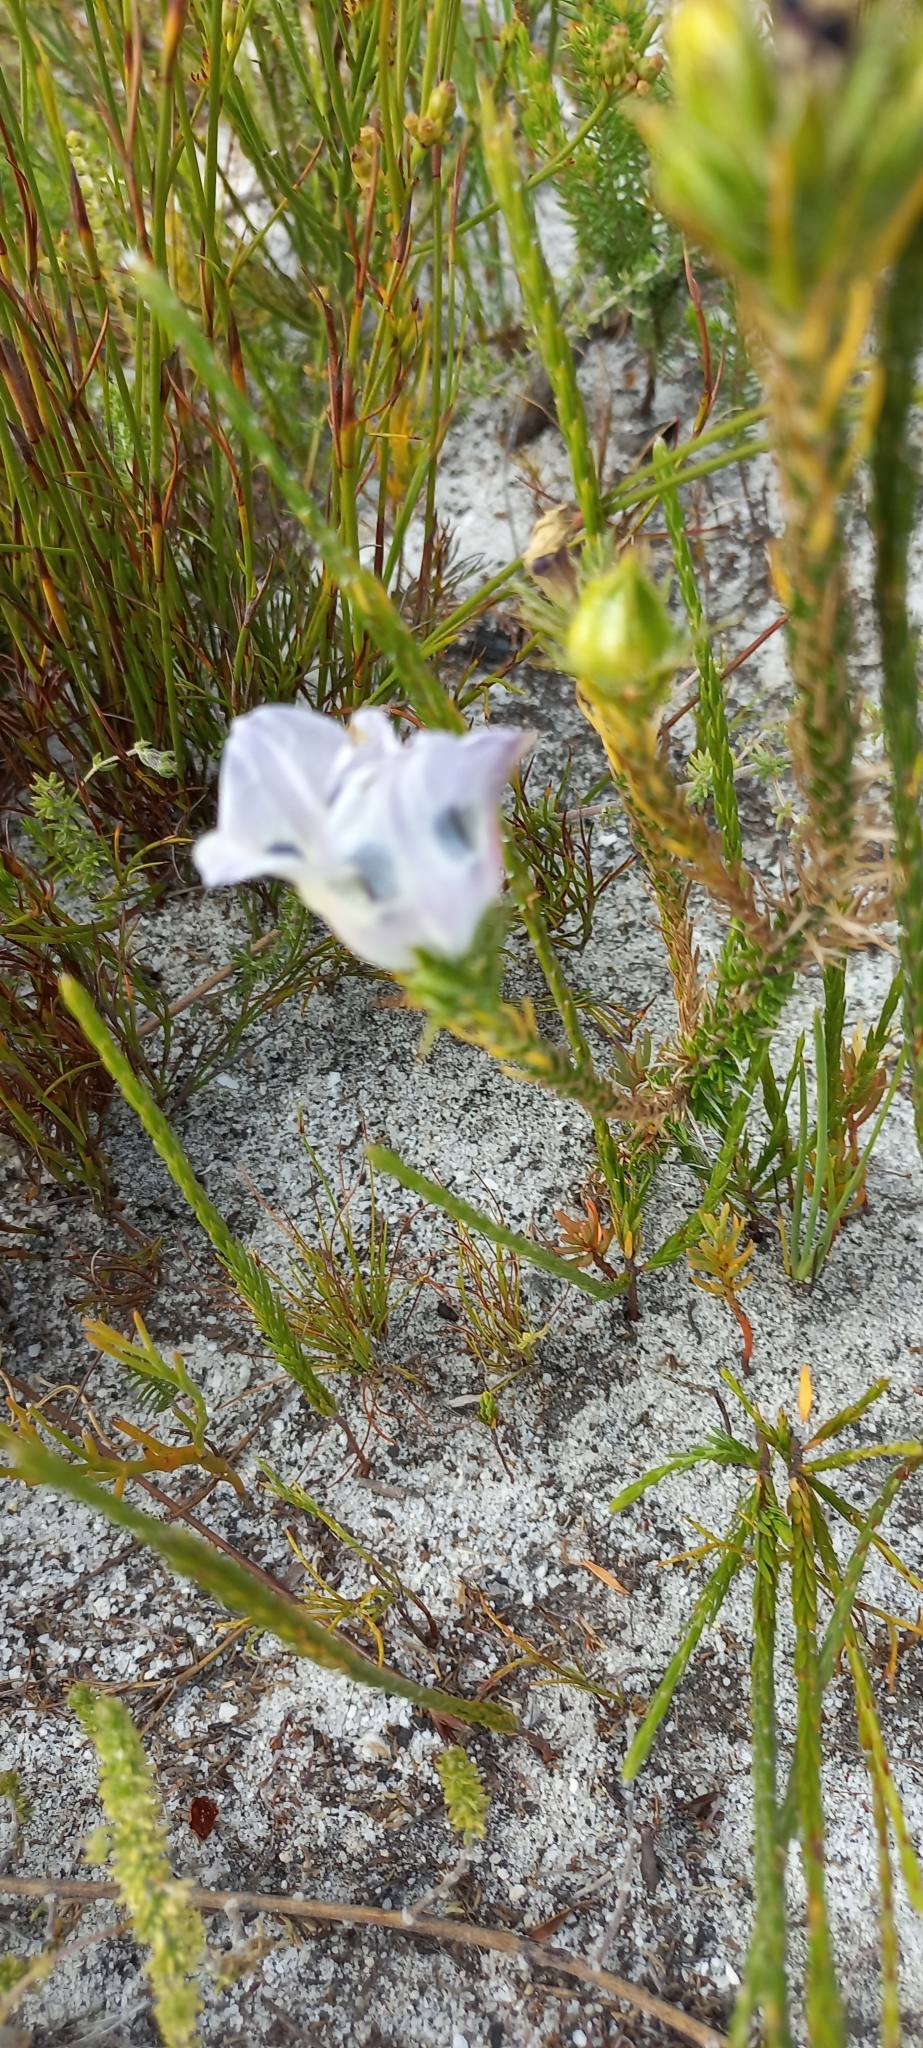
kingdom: Plantae
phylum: Tracheophyta
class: Magnoliopsida
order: Asterales
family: Campanulaceae
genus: Roella
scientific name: Roella maculata
